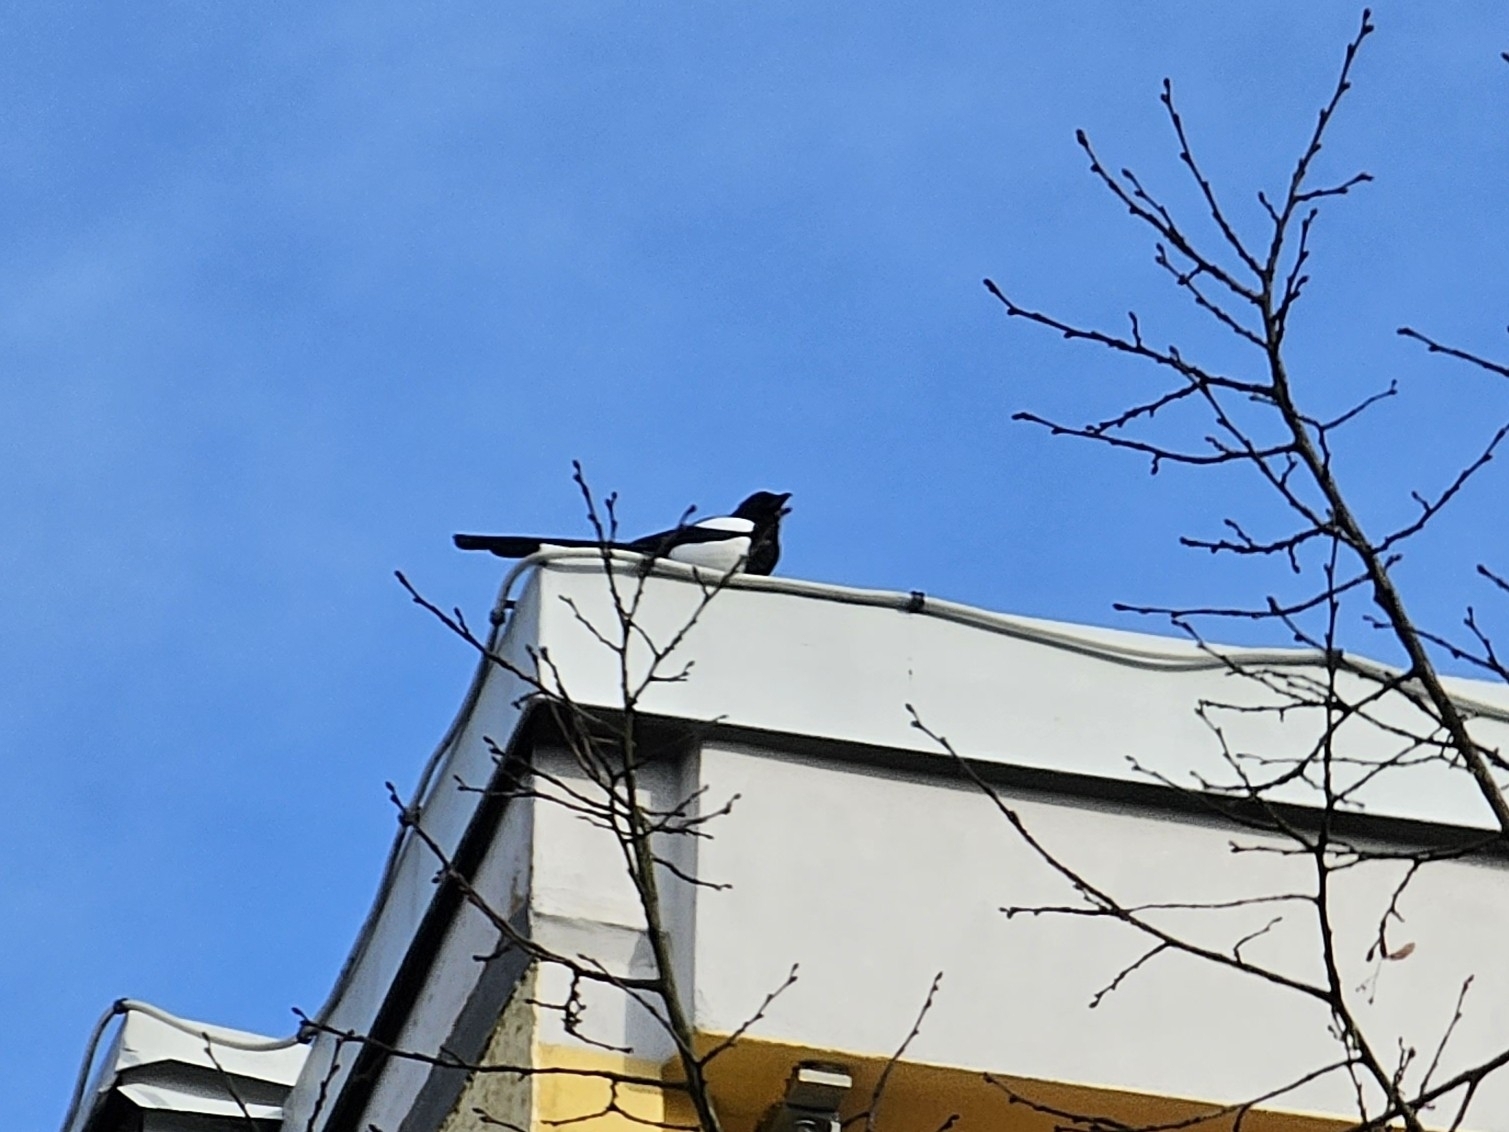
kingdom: Animalia
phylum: Chordata
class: Aves
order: Passeriformes
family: Corvidae
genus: Pica
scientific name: Pica pica
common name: Eurasian magpie
